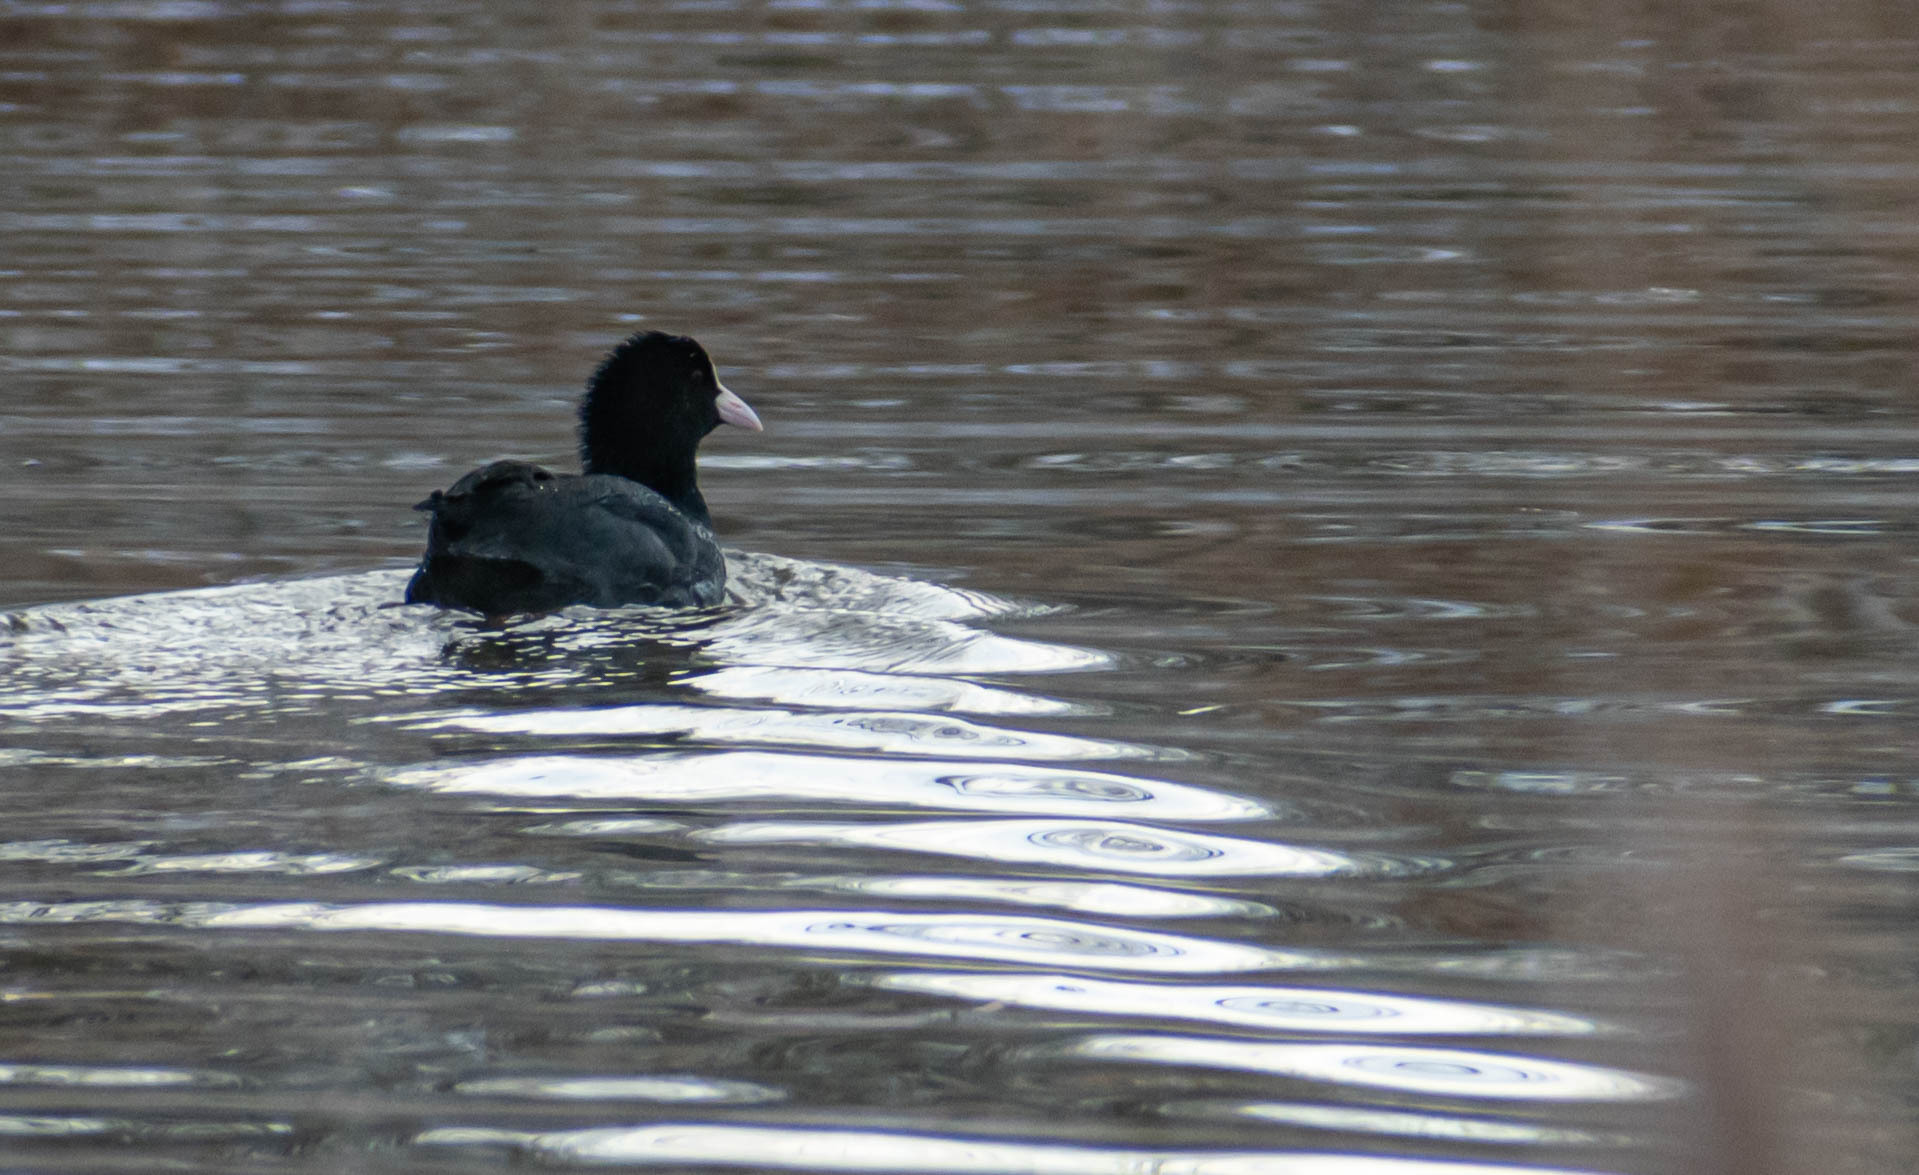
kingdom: Animalia
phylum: Chordata
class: Aves
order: Gruiformes
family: Rallidae
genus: Fulica
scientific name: Fulica atra
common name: Eurasian coot
